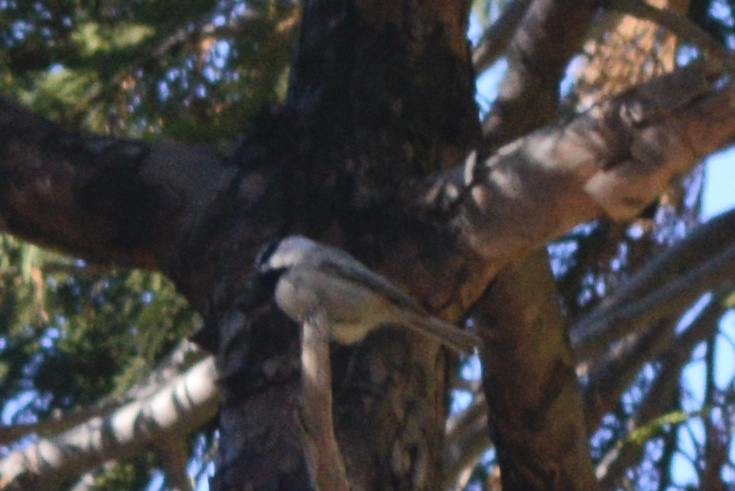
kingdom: Animalia
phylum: Chordata
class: Aves
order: Passeriformes
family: Paridae
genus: Poecile
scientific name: Poecile gambeli
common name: Mountain chickadee
